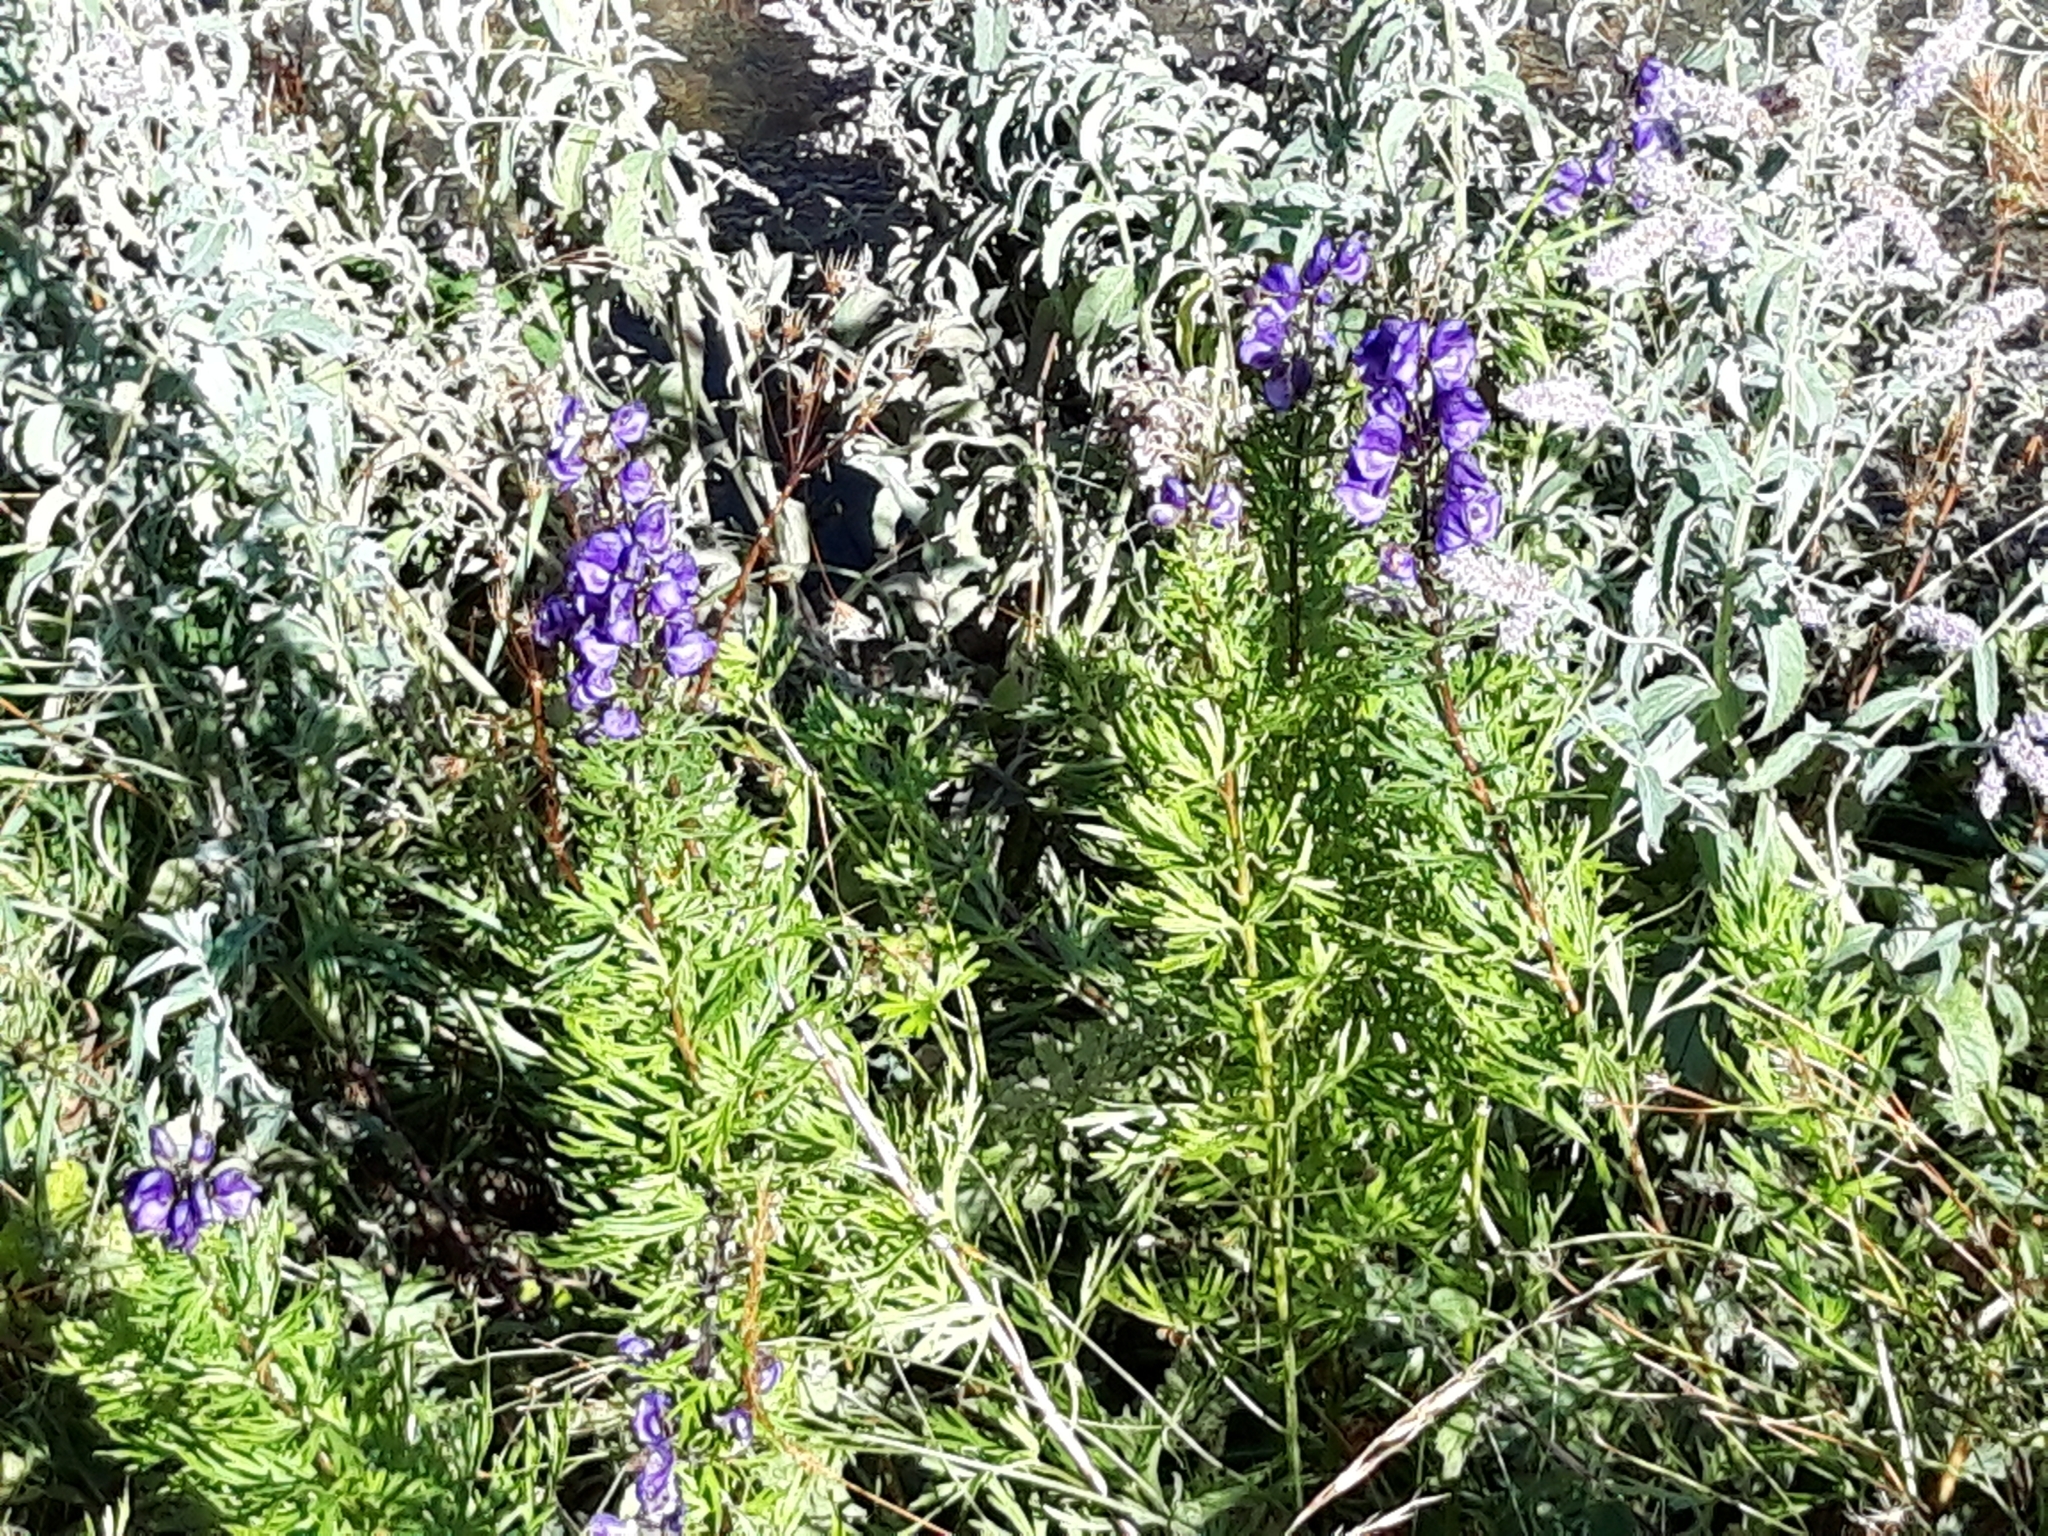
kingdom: Plantae
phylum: Tracheophyta
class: Magnoliopsida
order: Ranunculales
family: Ranunculaceae
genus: Aconitum
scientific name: Aconitum napellus
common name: Garden monkshood
